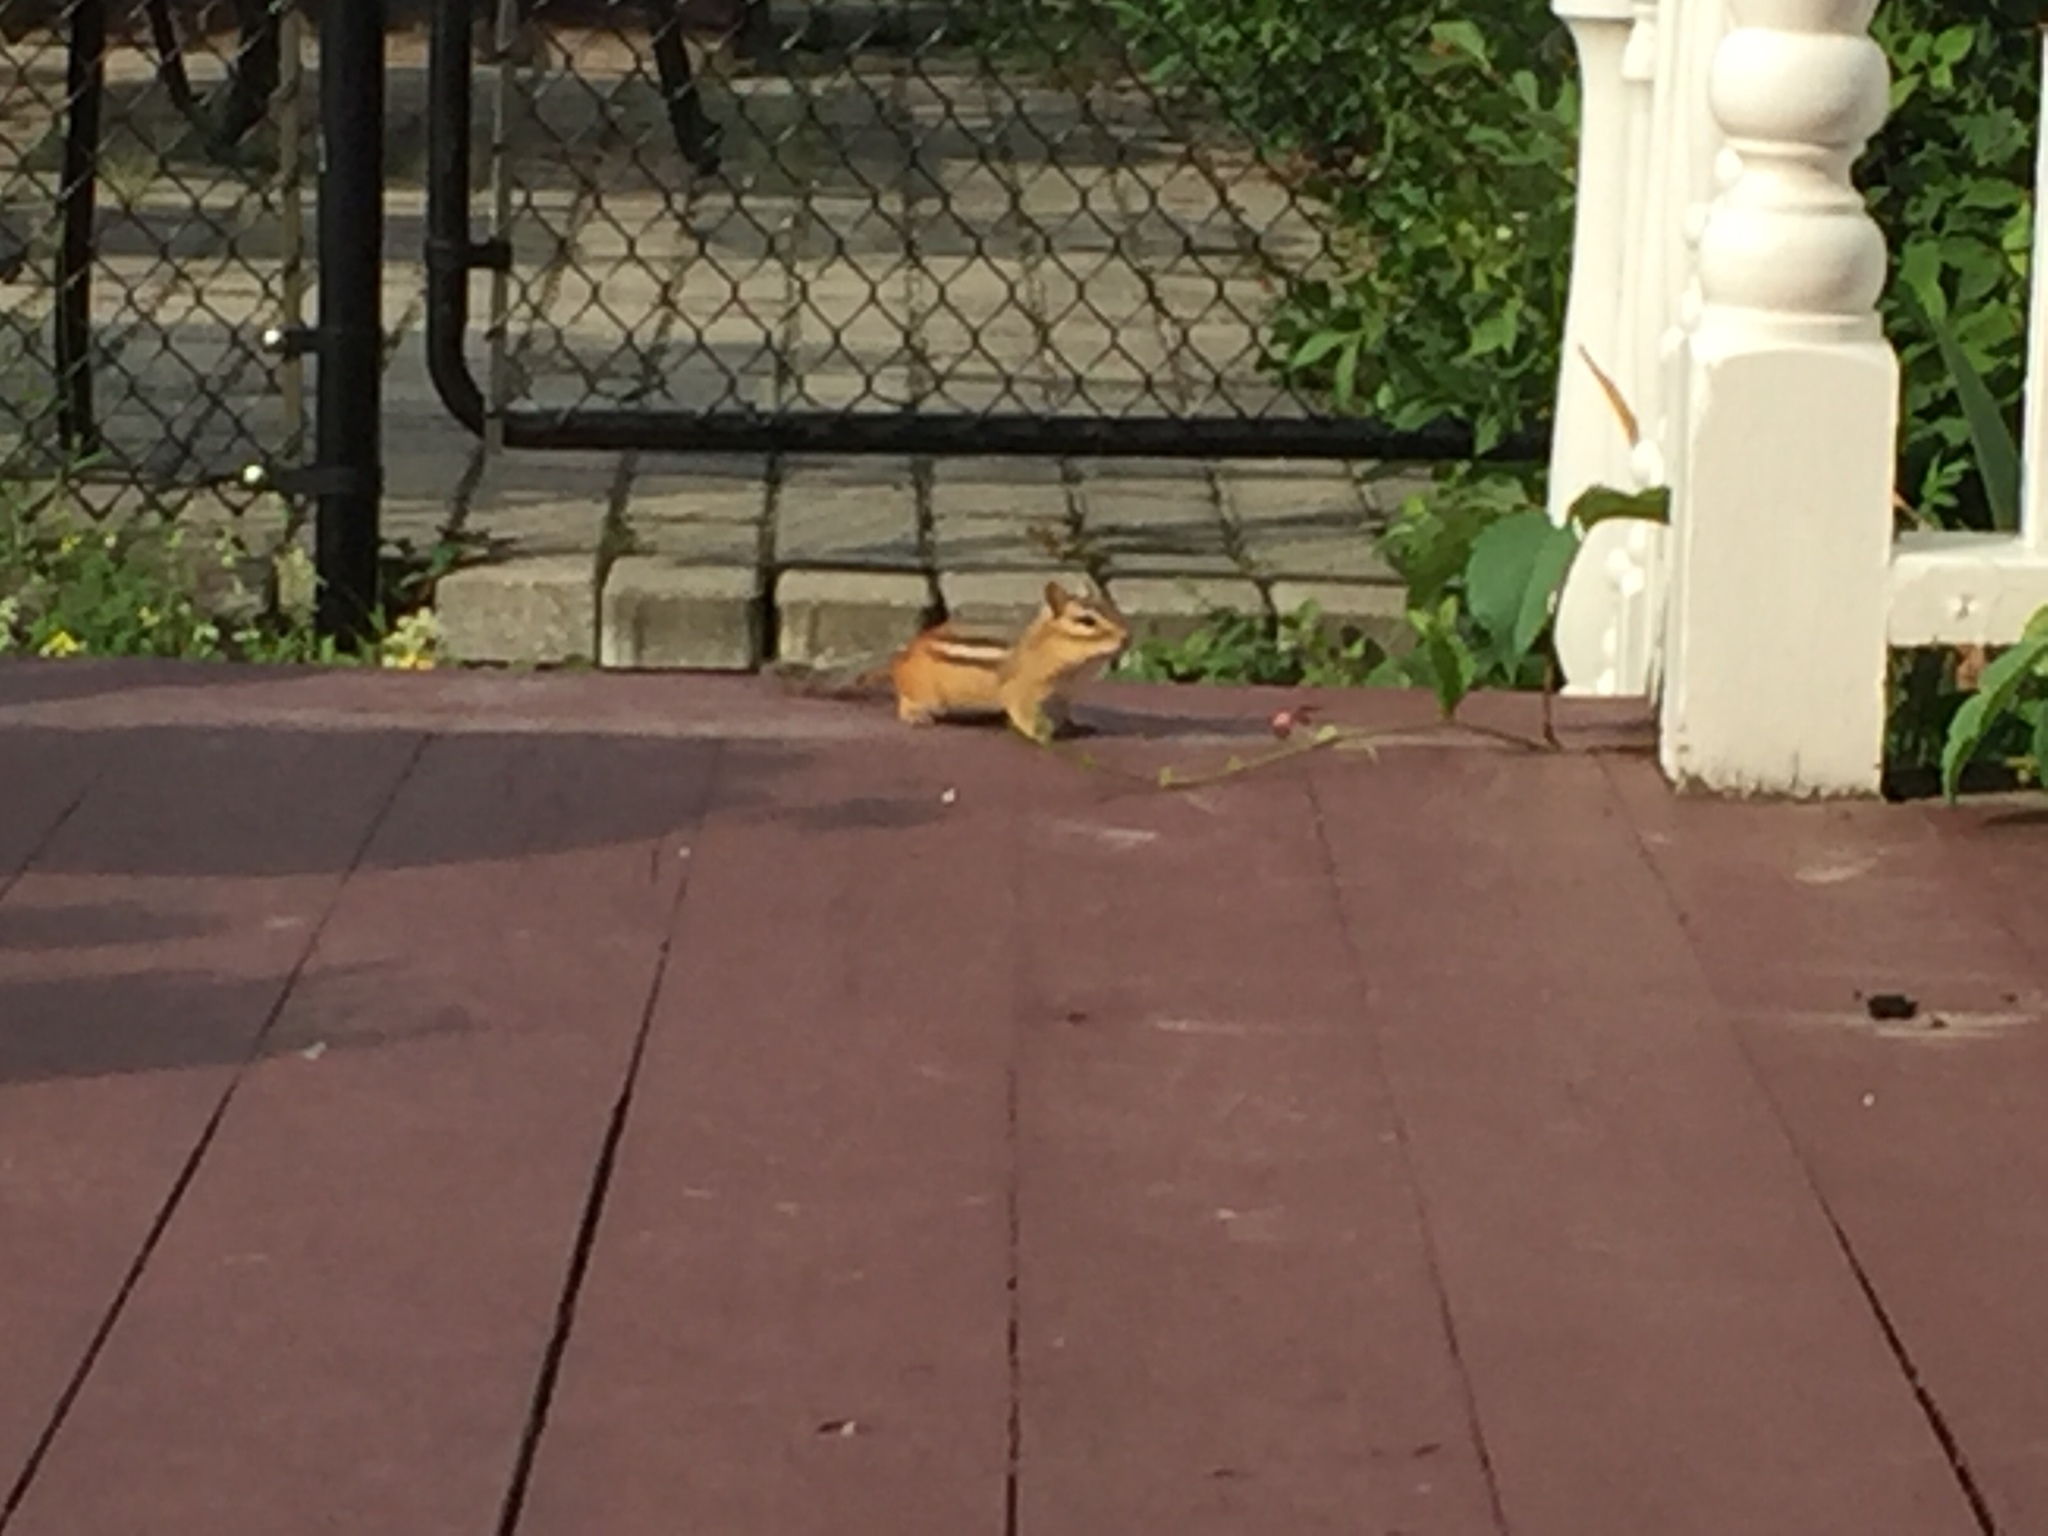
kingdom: Animalia
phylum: Chordata
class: Mammalia
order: Rodentia
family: Sciuridae
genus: Tamias
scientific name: Tamias striatus
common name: Eastern chipmunk
